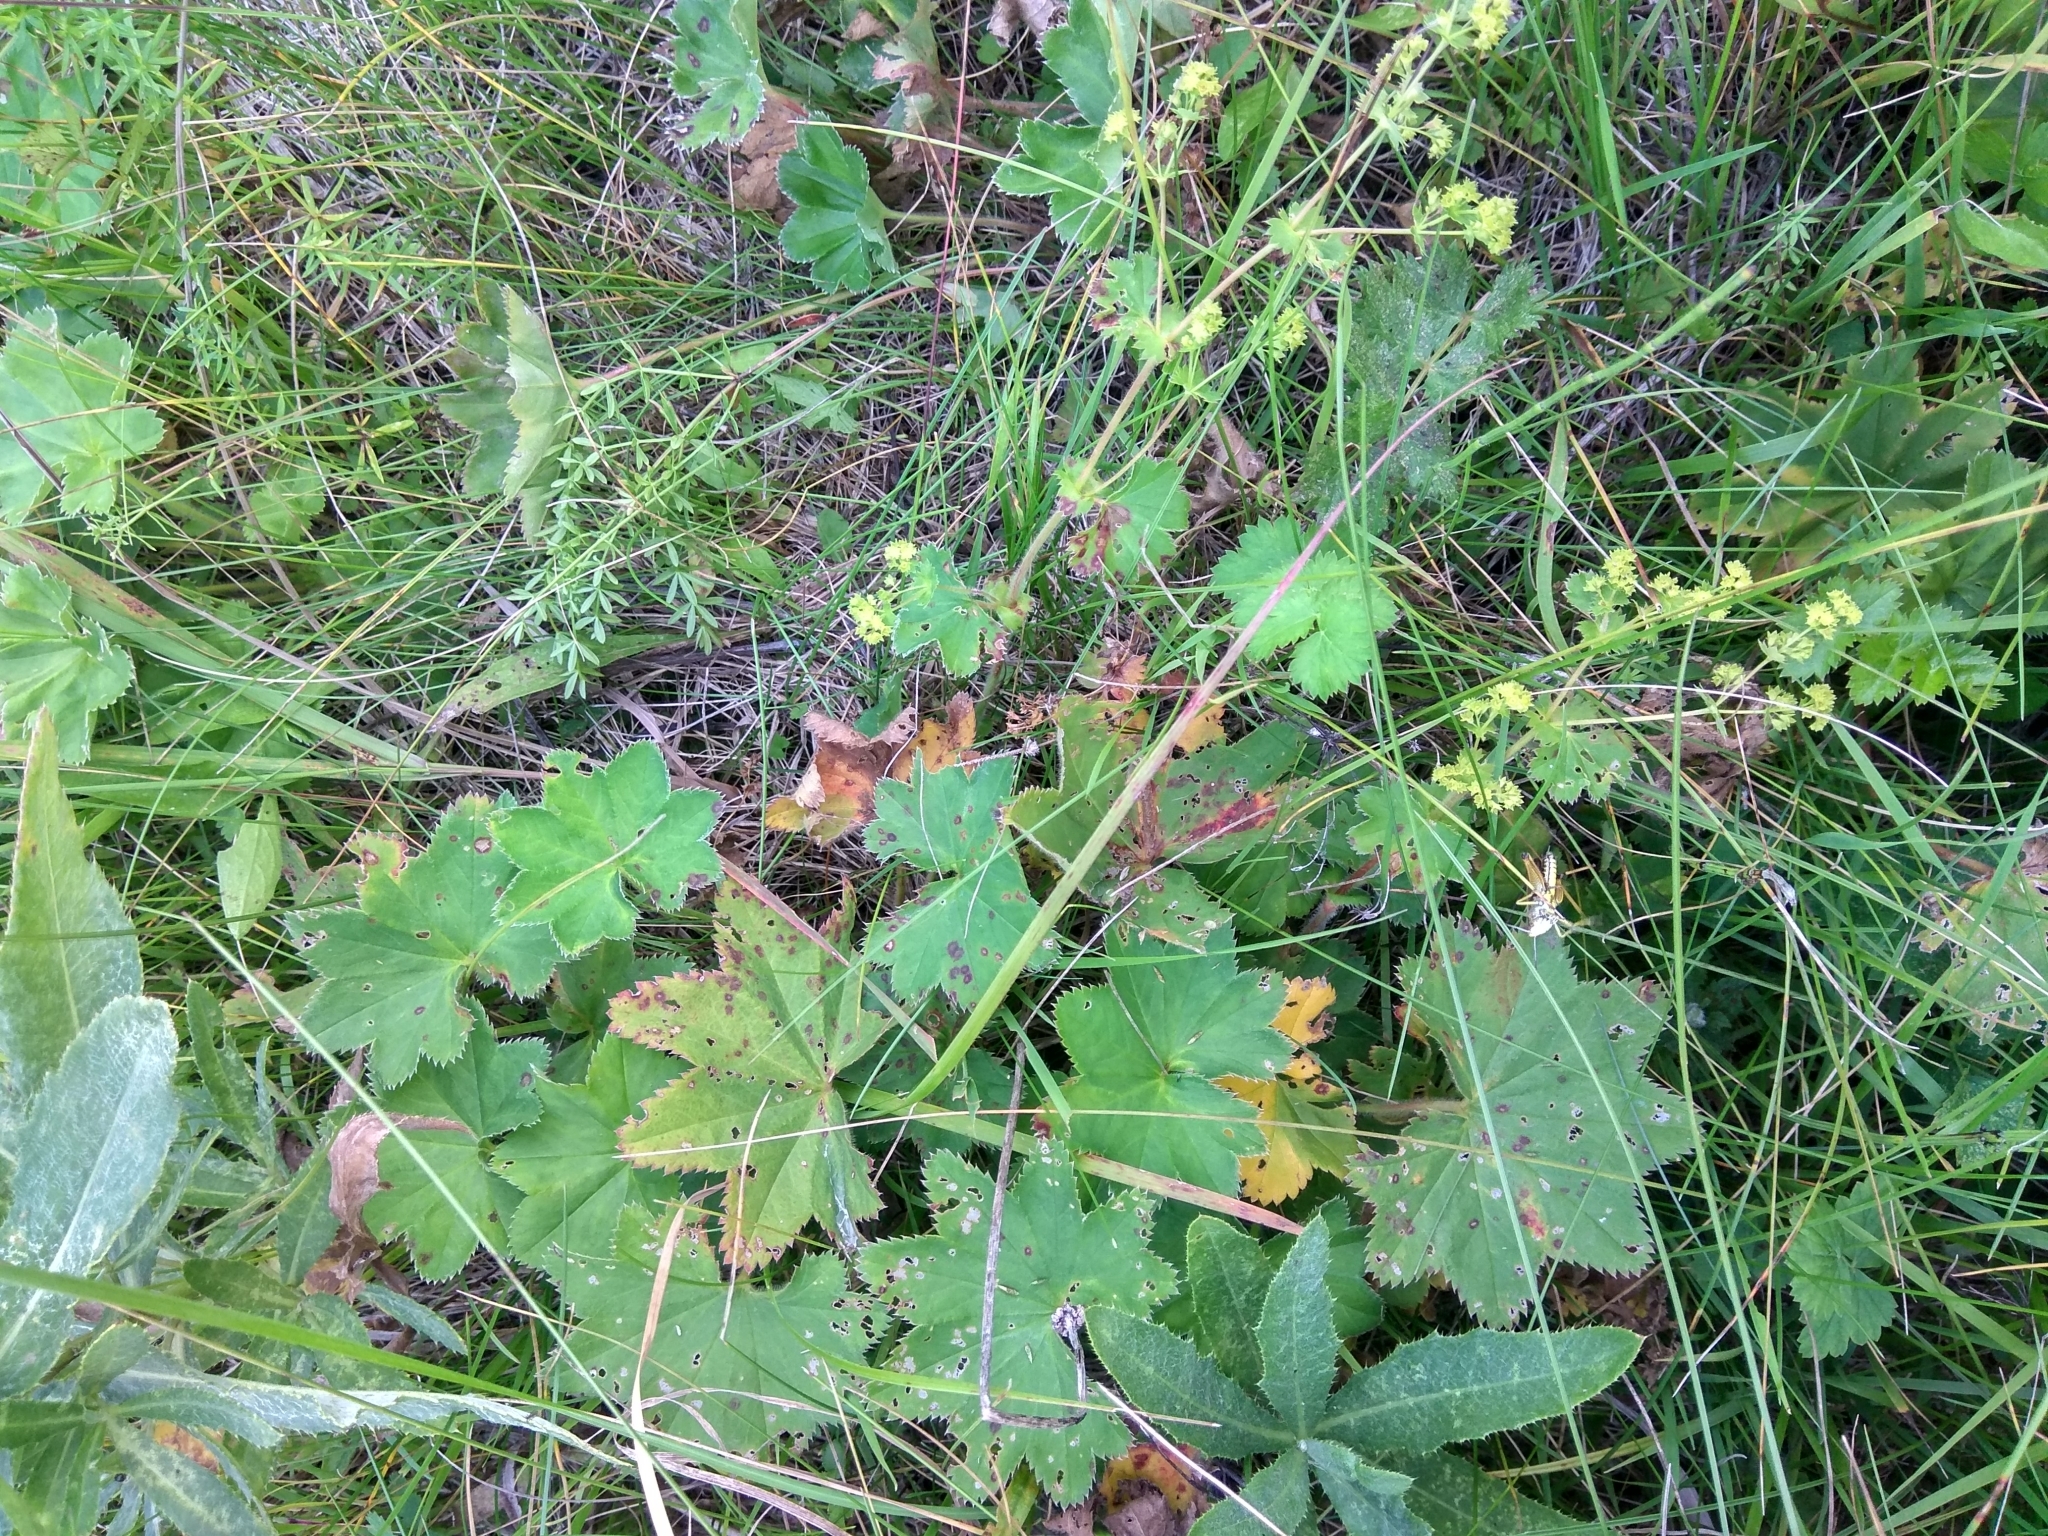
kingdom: Plantae
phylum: Tracheophyta
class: Magnoliopsida
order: Rosales
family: Rosaceae
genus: Alchemilla
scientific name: Alchemilla tichomirovii
